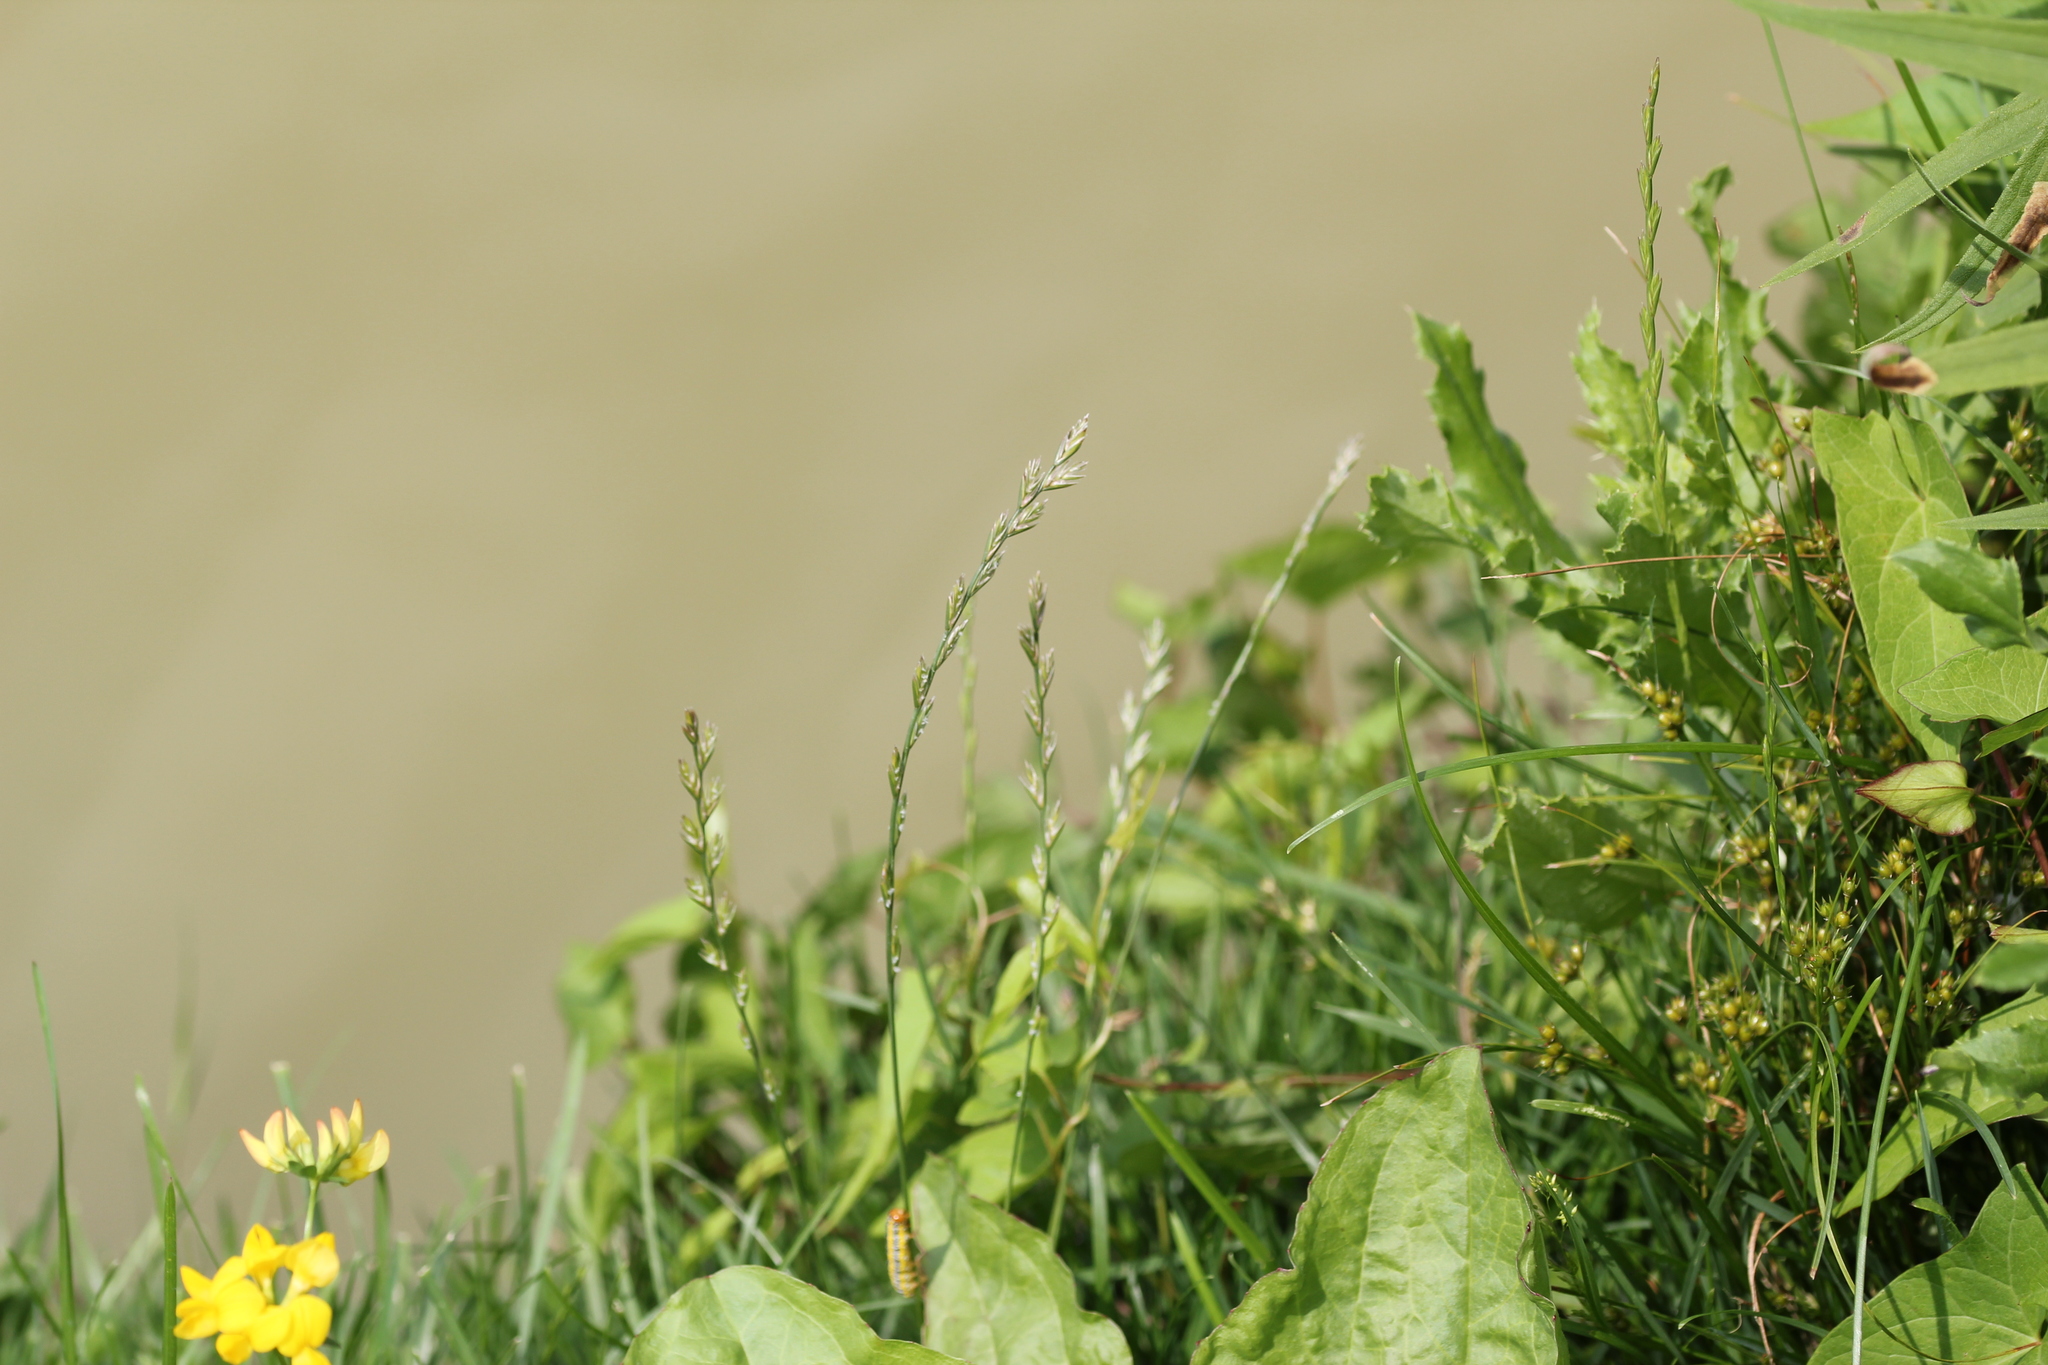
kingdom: Plantae
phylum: Tracheophyta
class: Liliopsida
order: Poales
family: Poaceae
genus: Lolium
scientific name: Lolium perenne
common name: Perennial ryegrass
